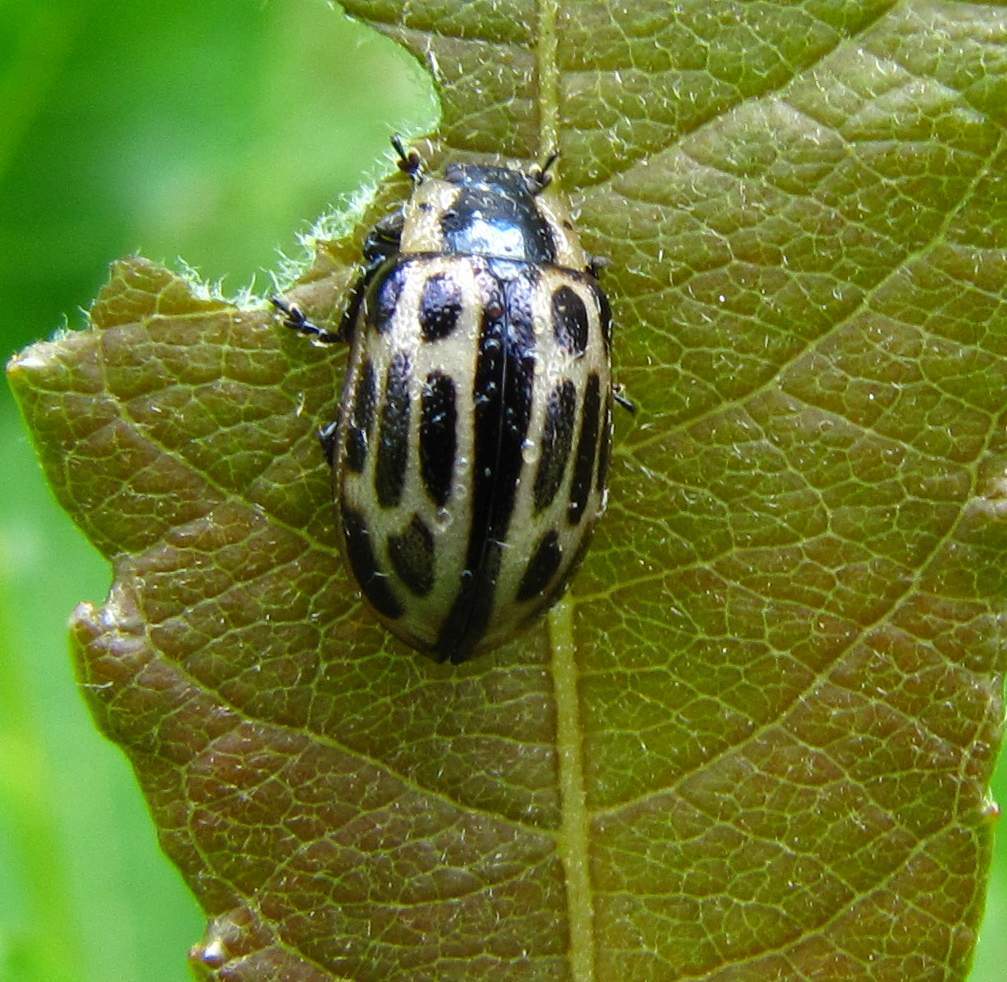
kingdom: Animalia
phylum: Arthropoda
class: Insecta
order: Coleoptera
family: Chrysomelidae
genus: Aethiopocassis
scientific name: Aethiopocassis scripta
